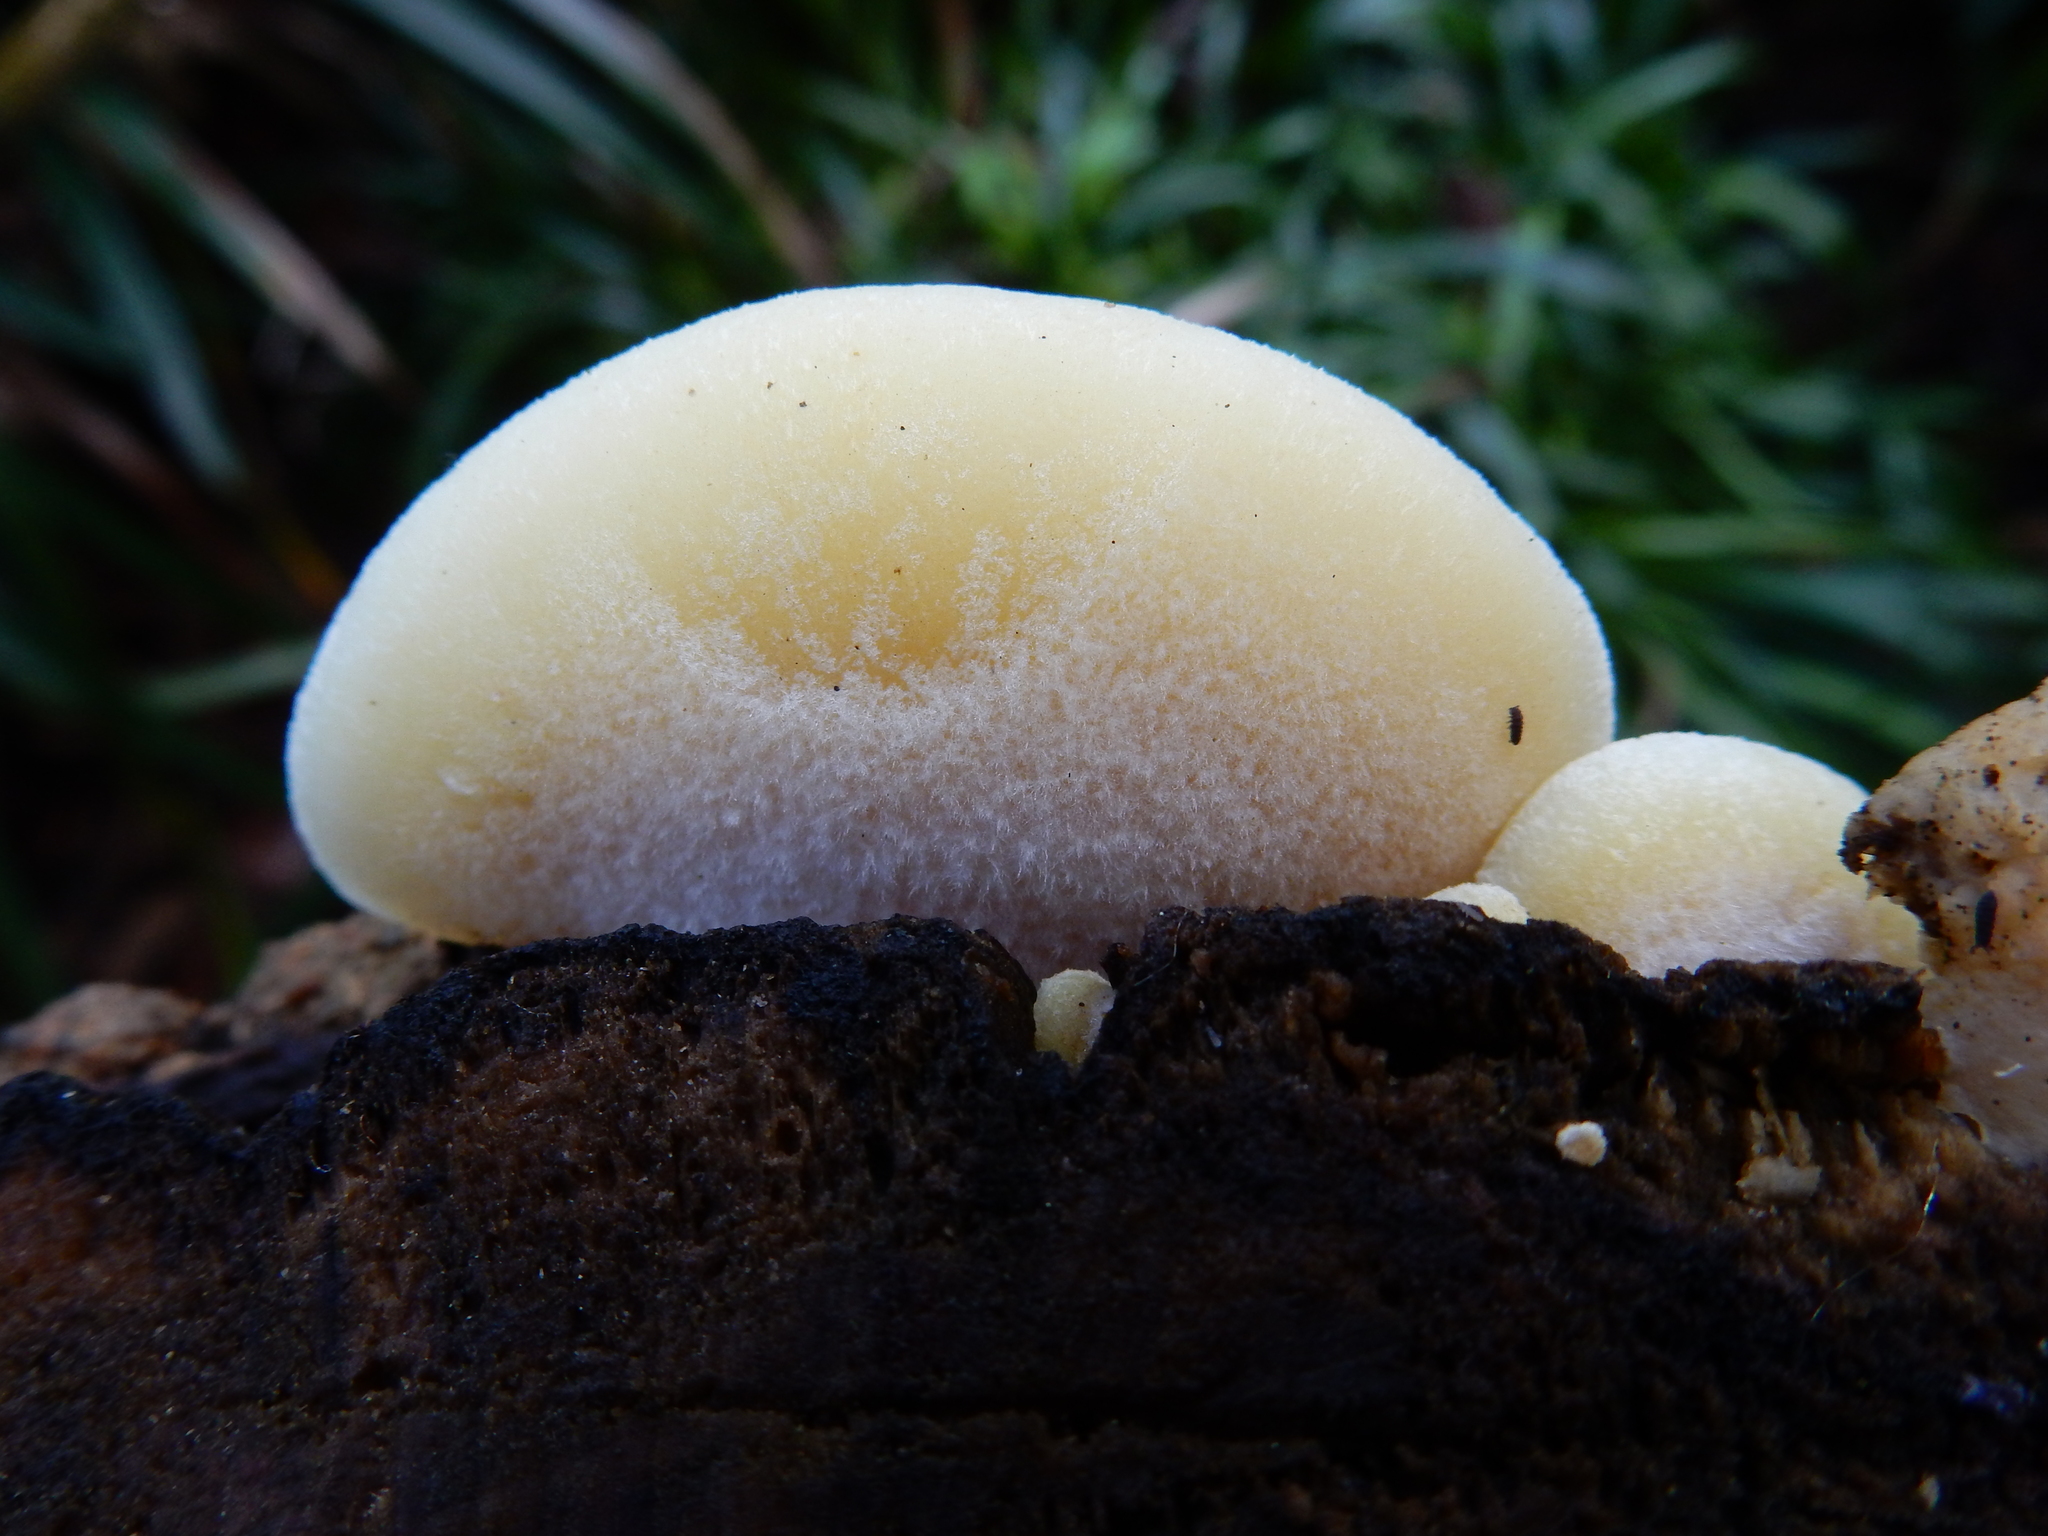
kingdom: Fungi
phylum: Basidiomycota
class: Agaricomycetes
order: Agaricales
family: Tricholomataceae
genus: Conchomyces
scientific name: Conchomyces bursiformis
